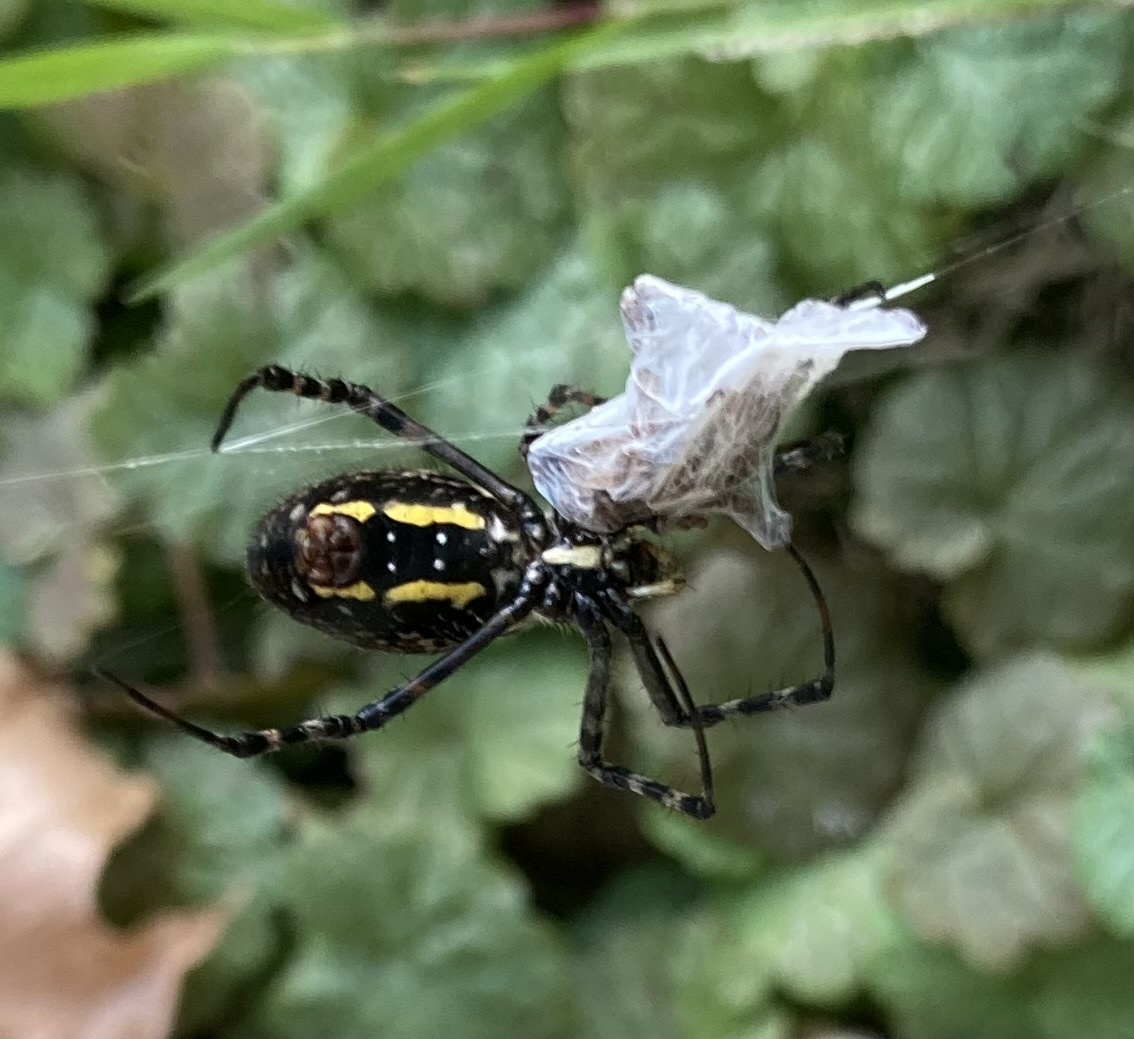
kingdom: Animalia
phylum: Arthropoda
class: Arachnida
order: Araneae
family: Araneidae
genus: Argiope
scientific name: Argiope trifasciata
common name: Banded garden spider
